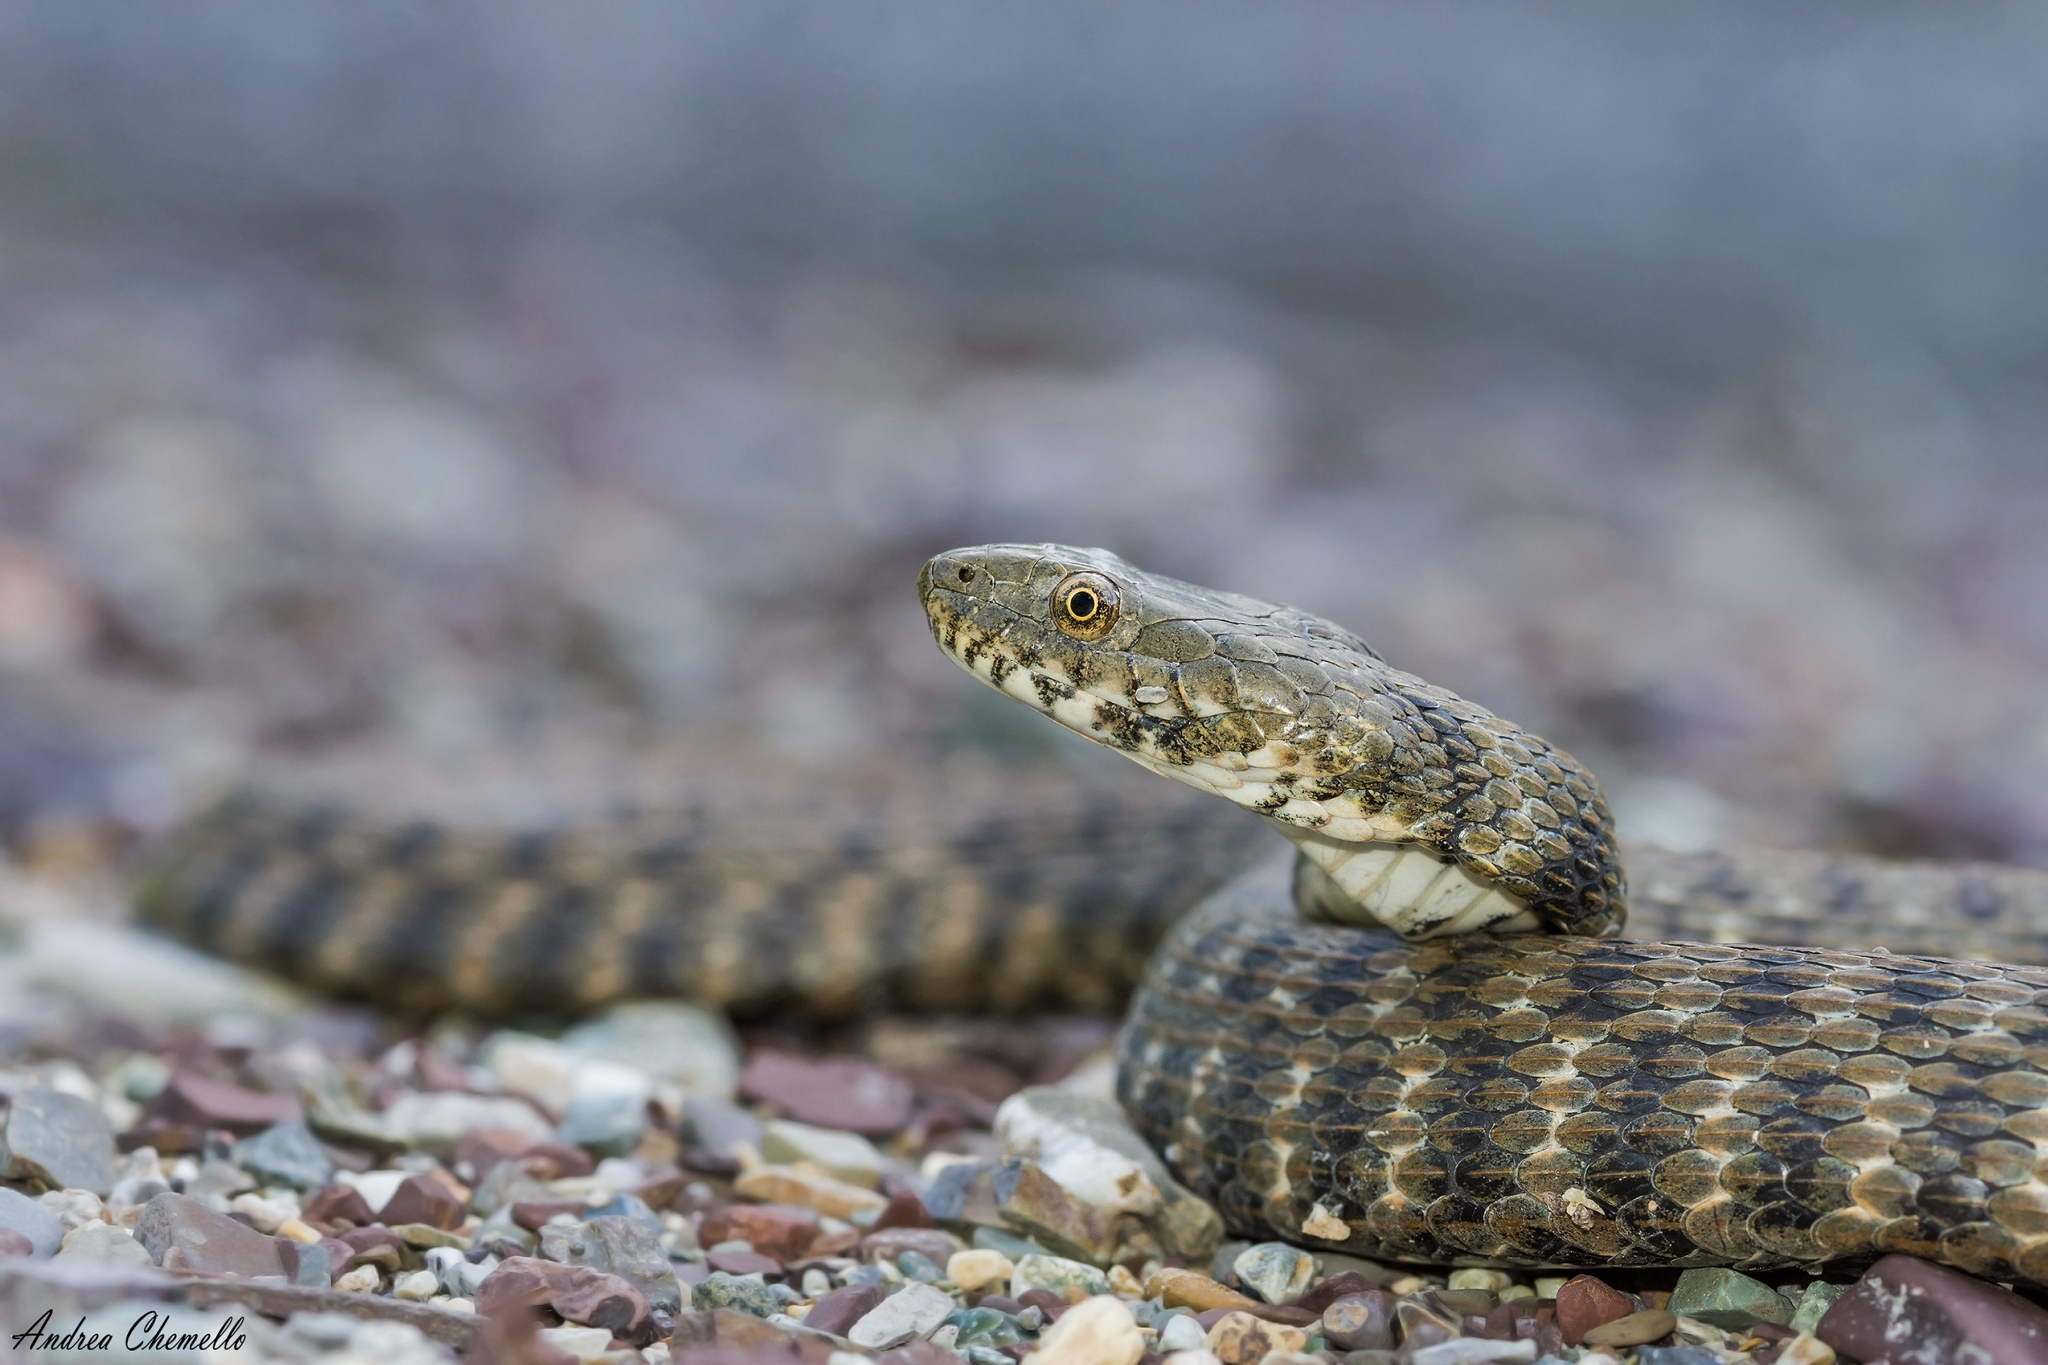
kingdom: Animalia
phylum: Chordata
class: Squamata
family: Colubridae
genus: Natrix
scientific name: Natrix tessellata
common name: Dice snake
